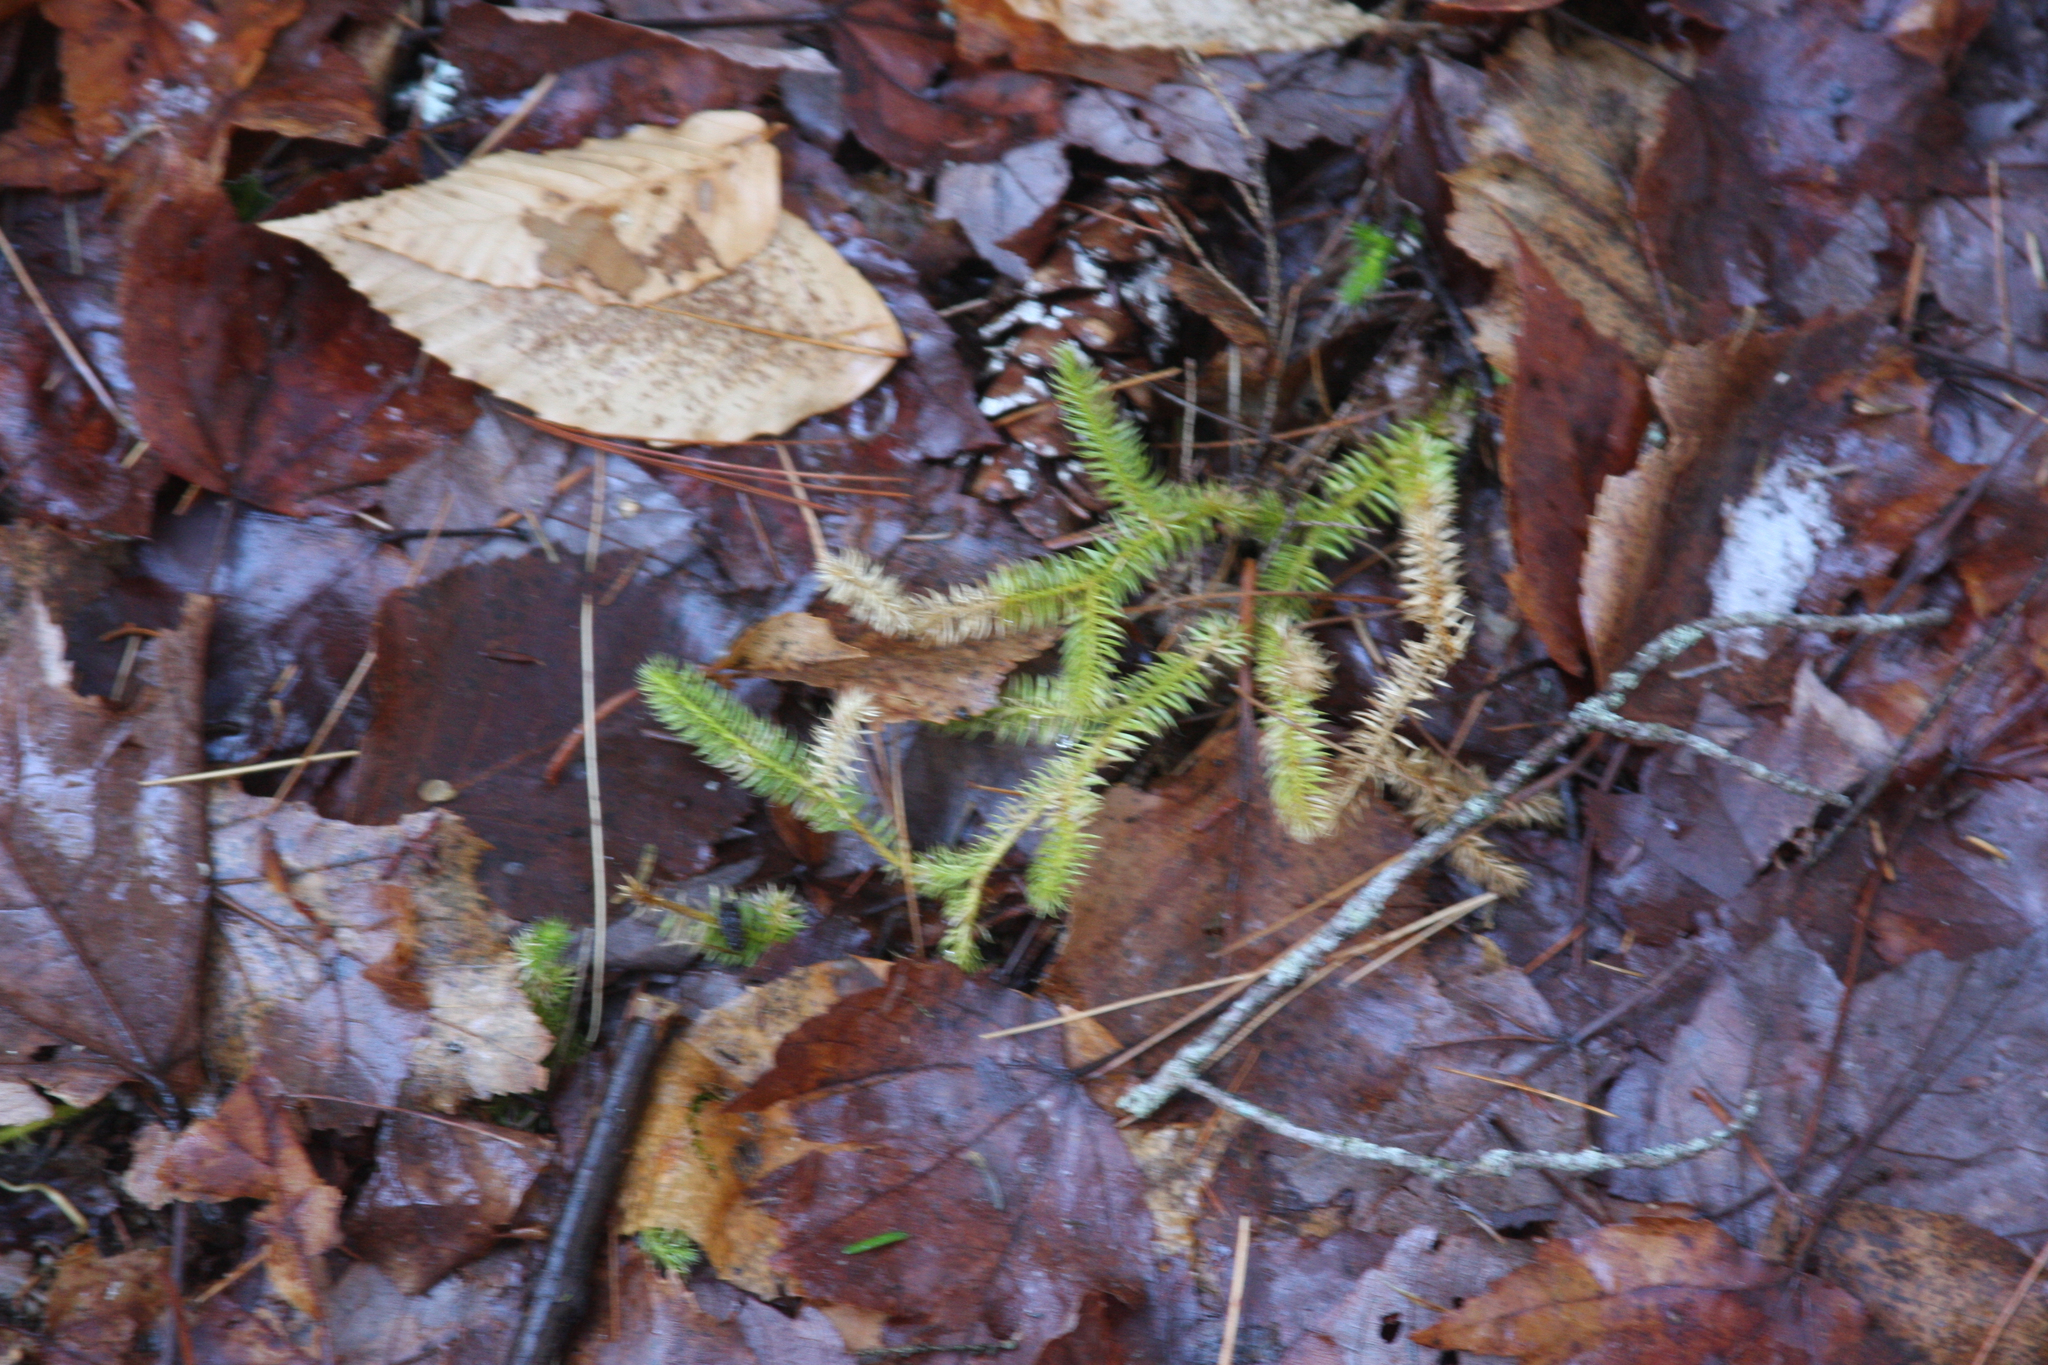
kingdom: Plantae
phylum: Tracheophyta
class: Lycopodiopsida
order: Lycopodiales
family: Lycopodiaceae
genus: Lycopodium
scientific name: Lycopodium clavatum
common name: Stag's-horn clubmoss
